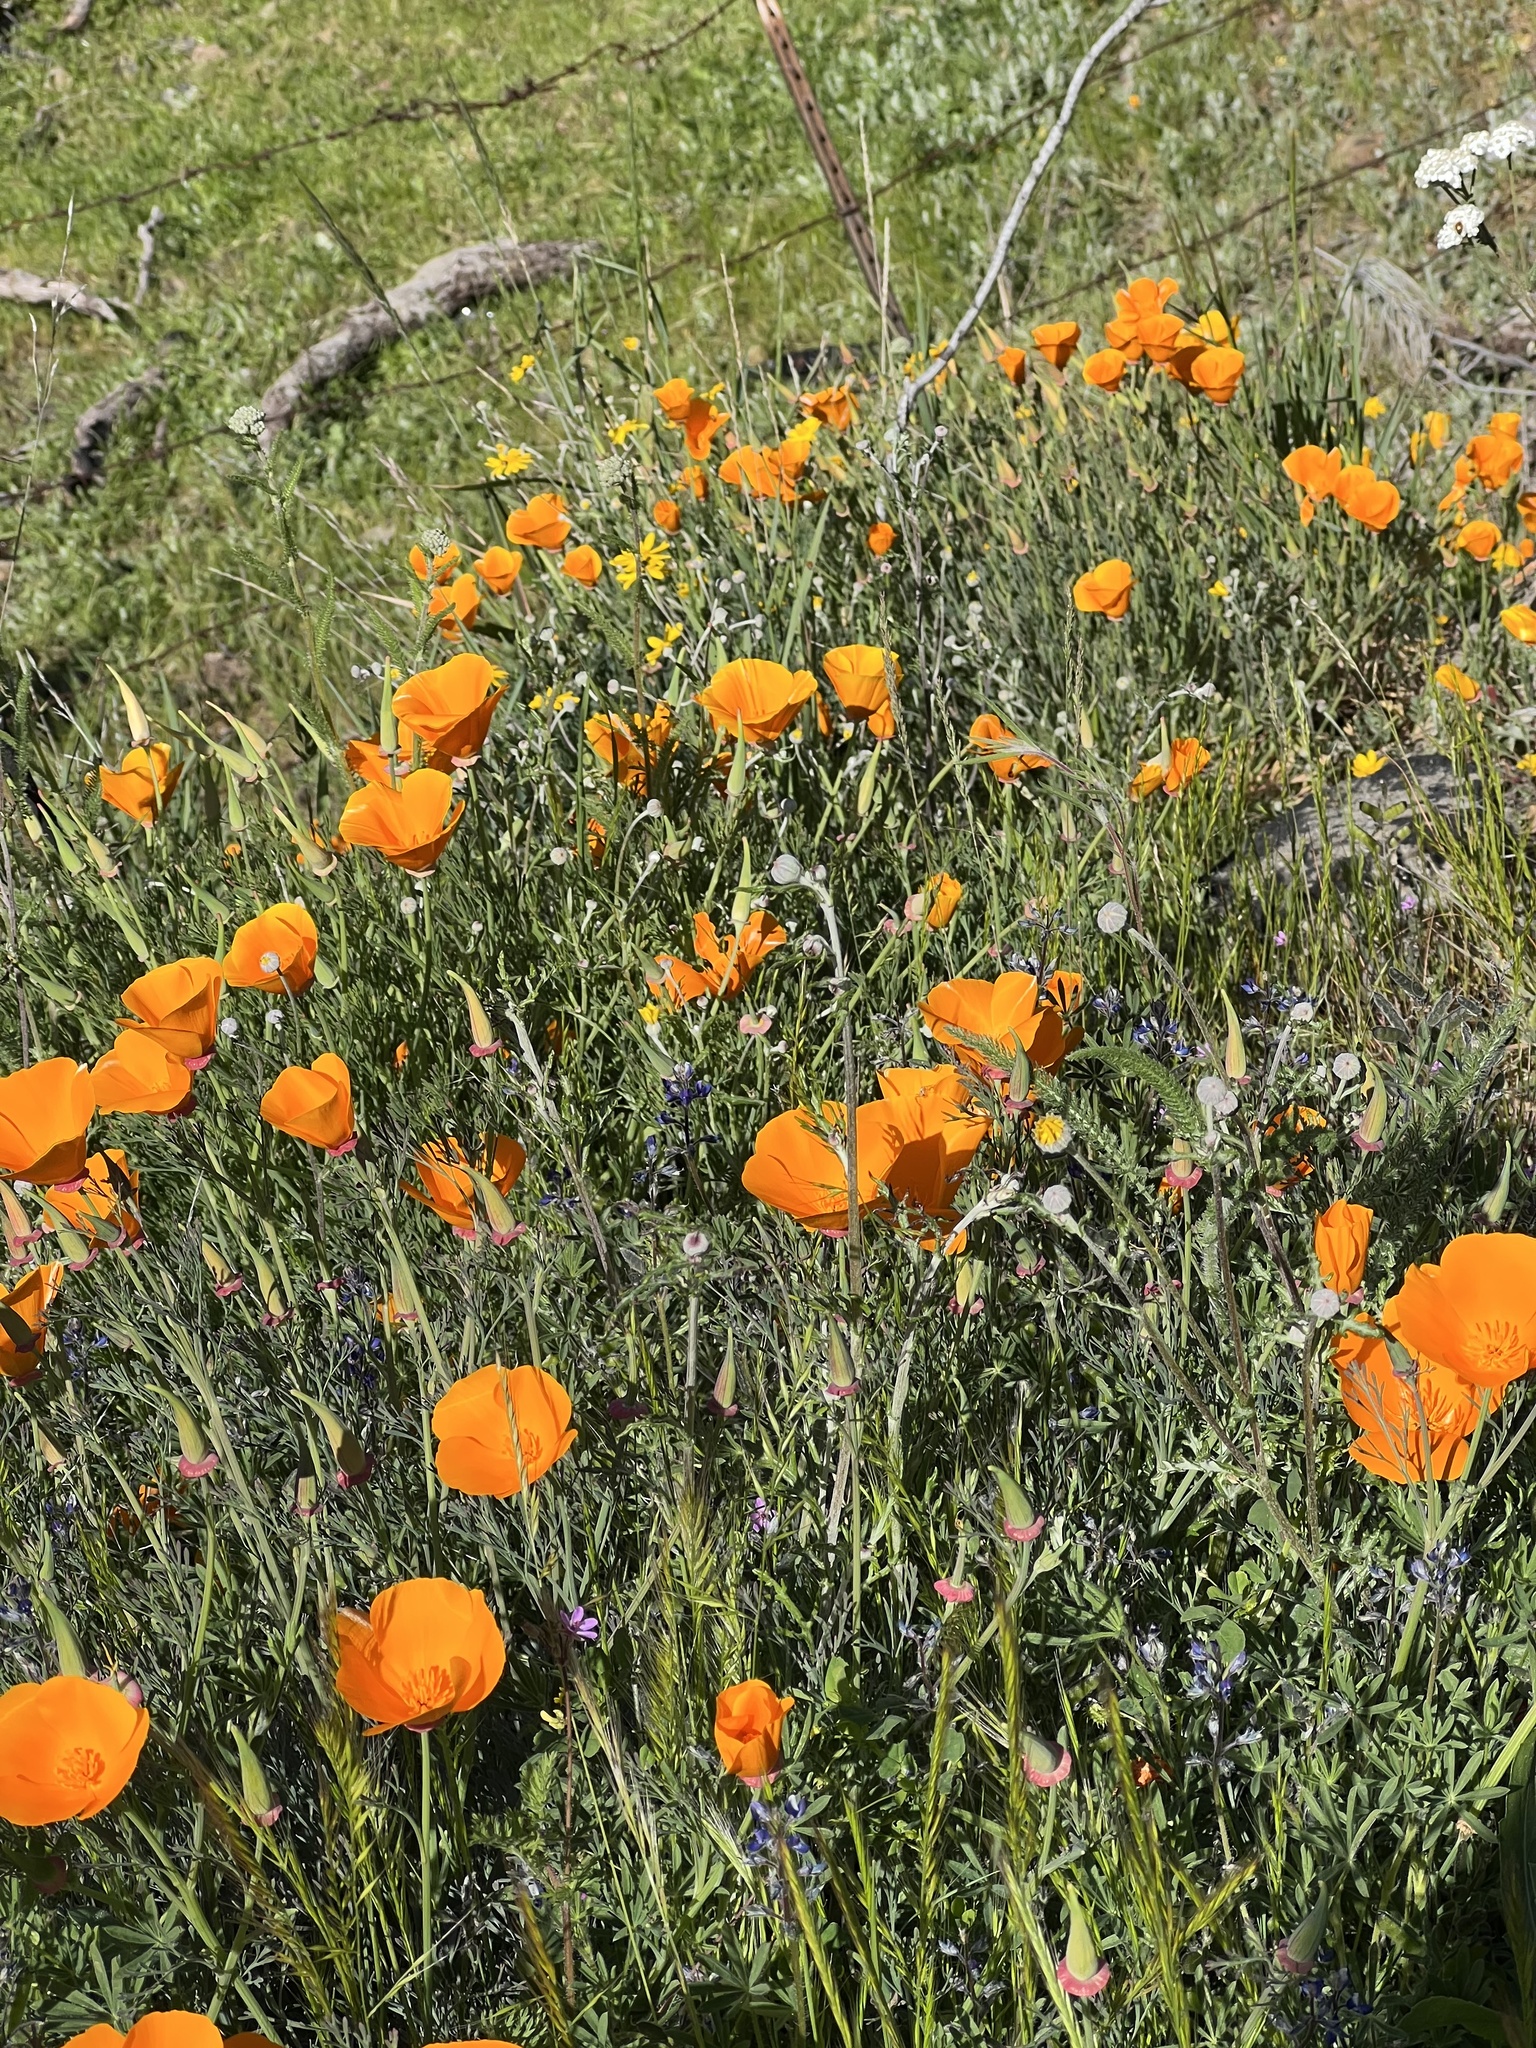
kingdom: Plantae
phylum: Tracheophyta
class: Magnoliopsida
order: Ranunculales
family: Papaveraceae
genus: Eschscholzia
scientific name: Eschscholzia californica
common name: California poppy
